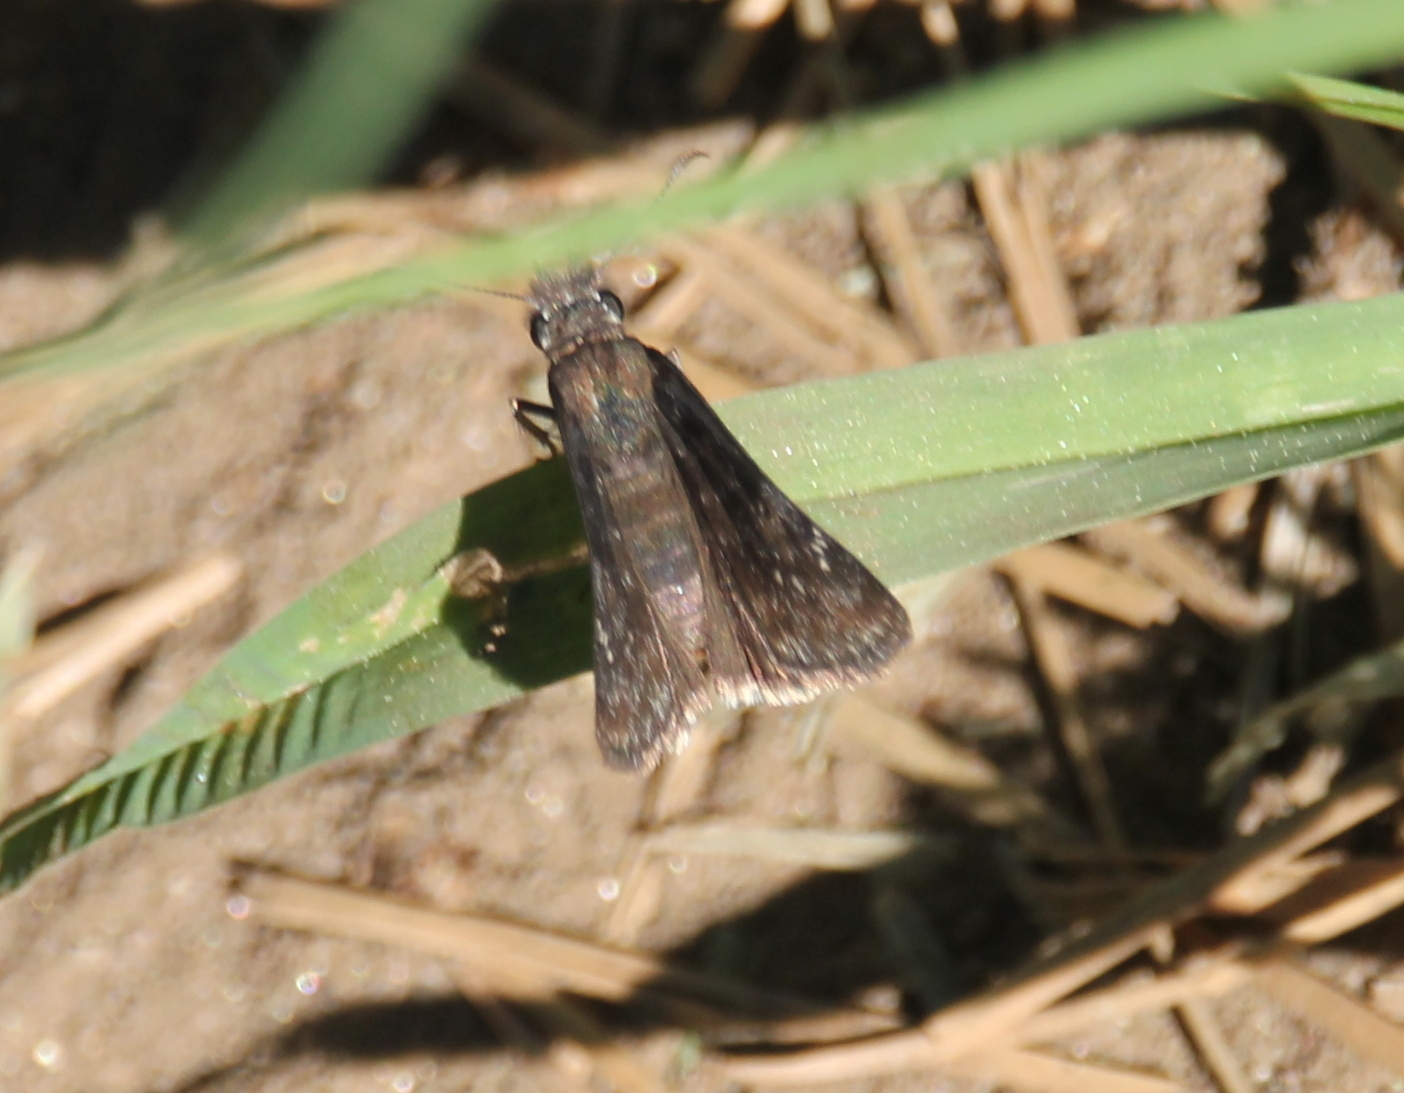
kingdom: Animalia
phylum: Arthropoda
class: Insecta
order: Lepidoptera
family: Hesperiidae
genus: Erynnis
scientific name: Erynnis tristis
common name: Mournful duskywing
